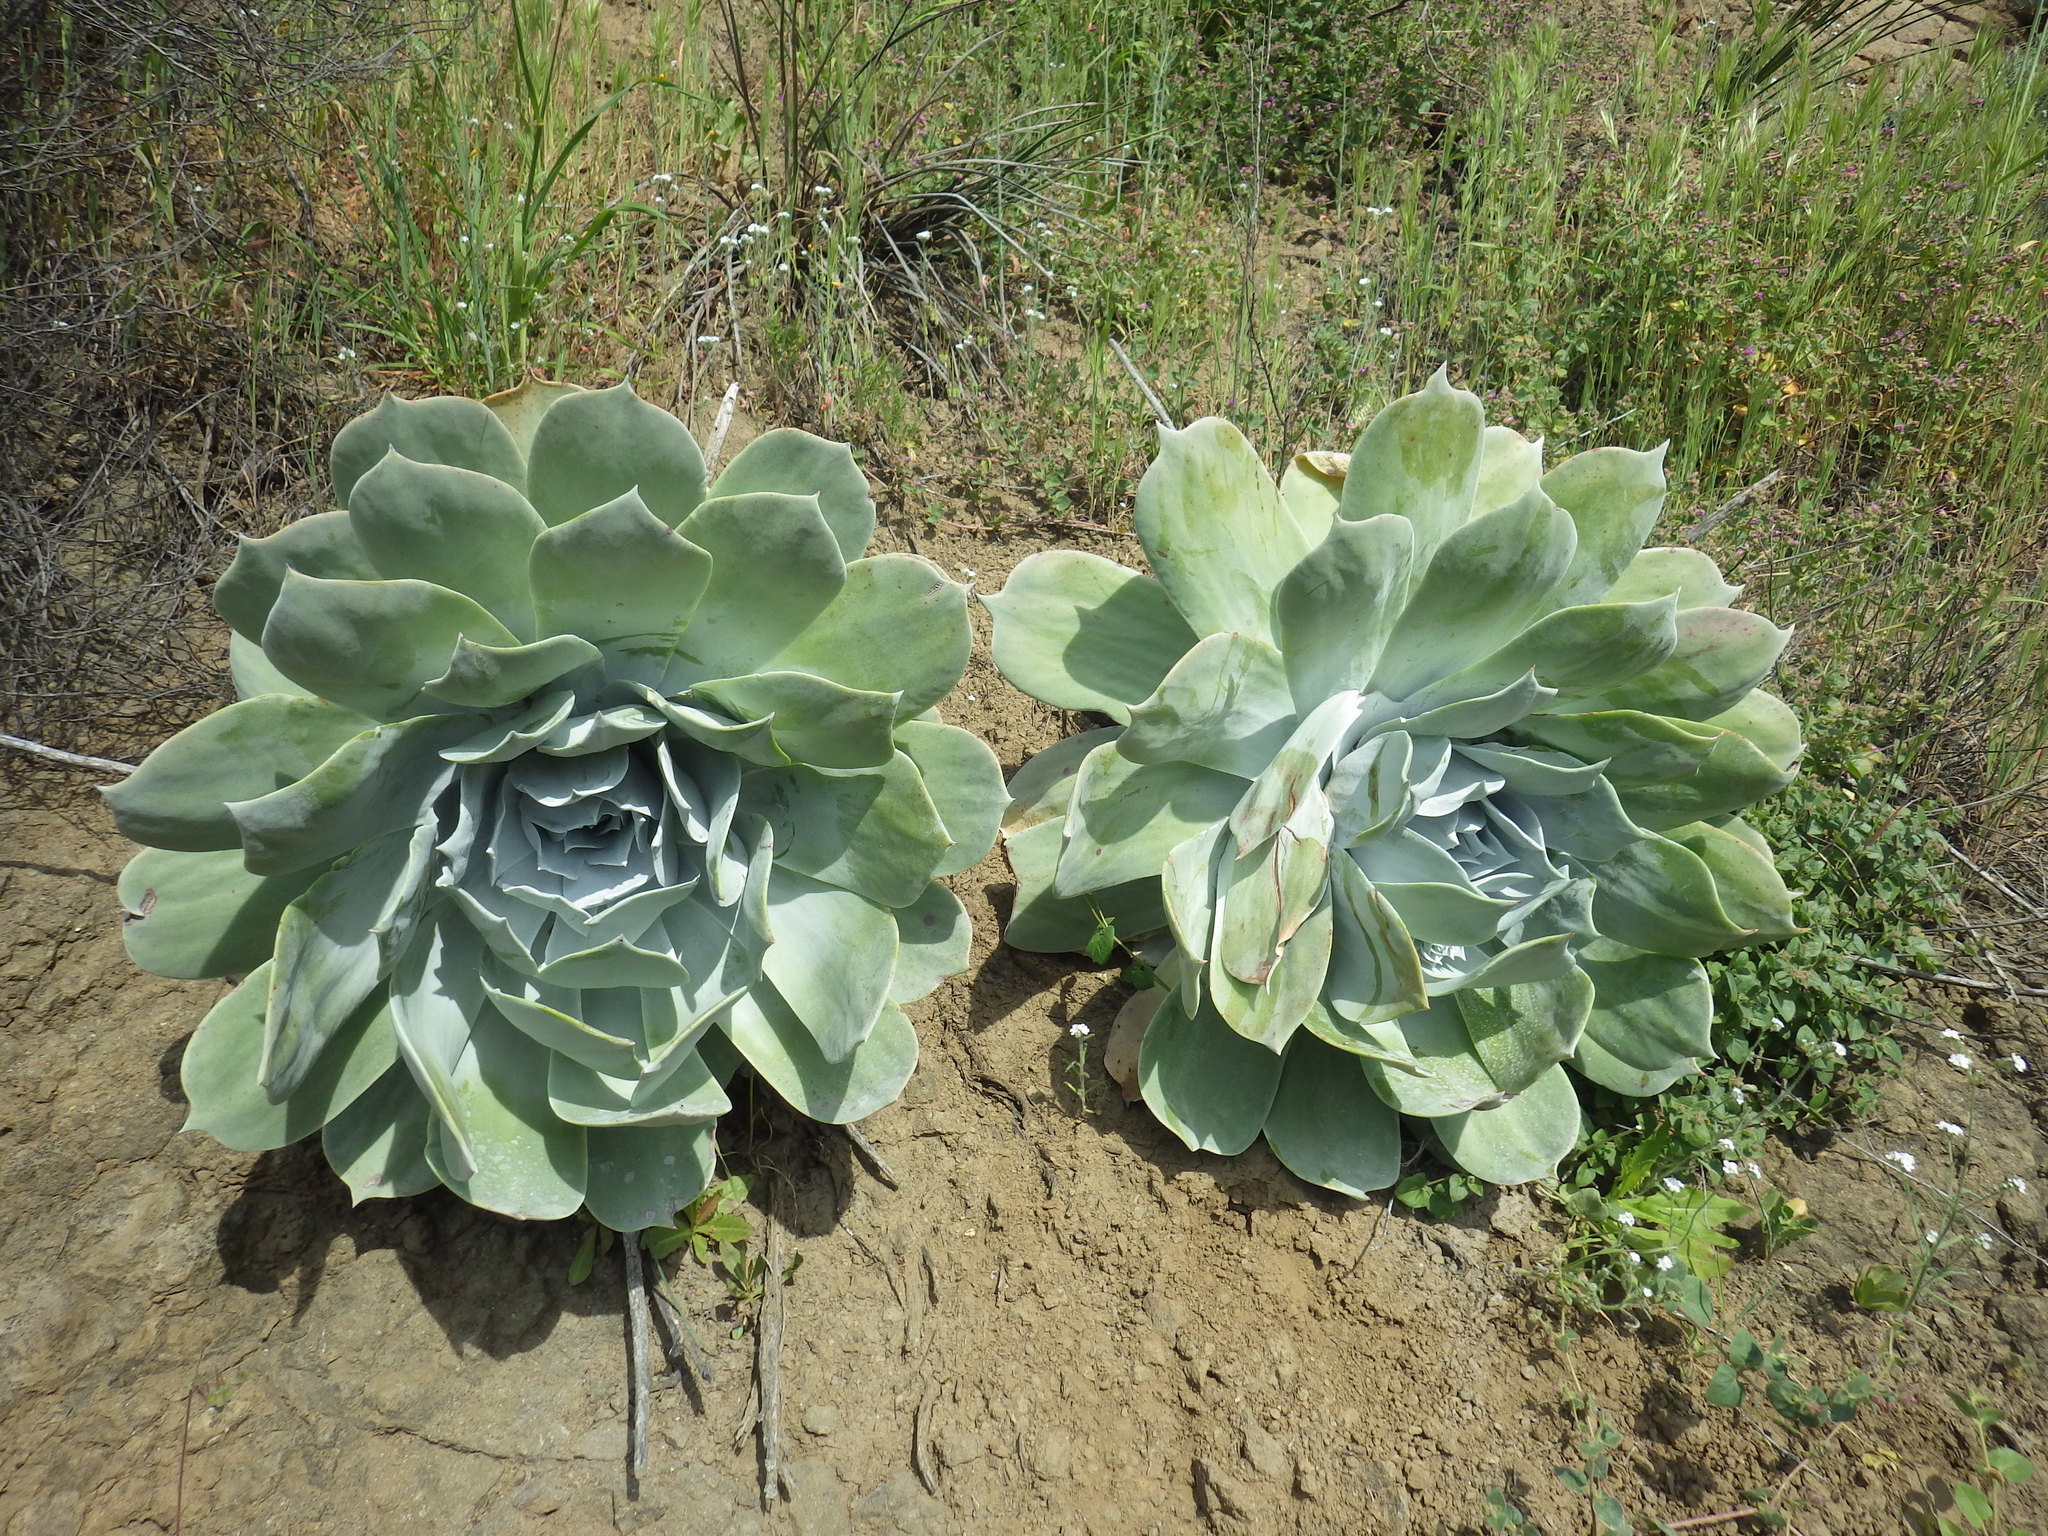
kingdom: Plantae
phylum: Tracheophyta
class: Magnoliopsida
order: Saxifragales
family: Crassulaceae
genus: Dudleya
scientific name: Dudleya pulverulenta
